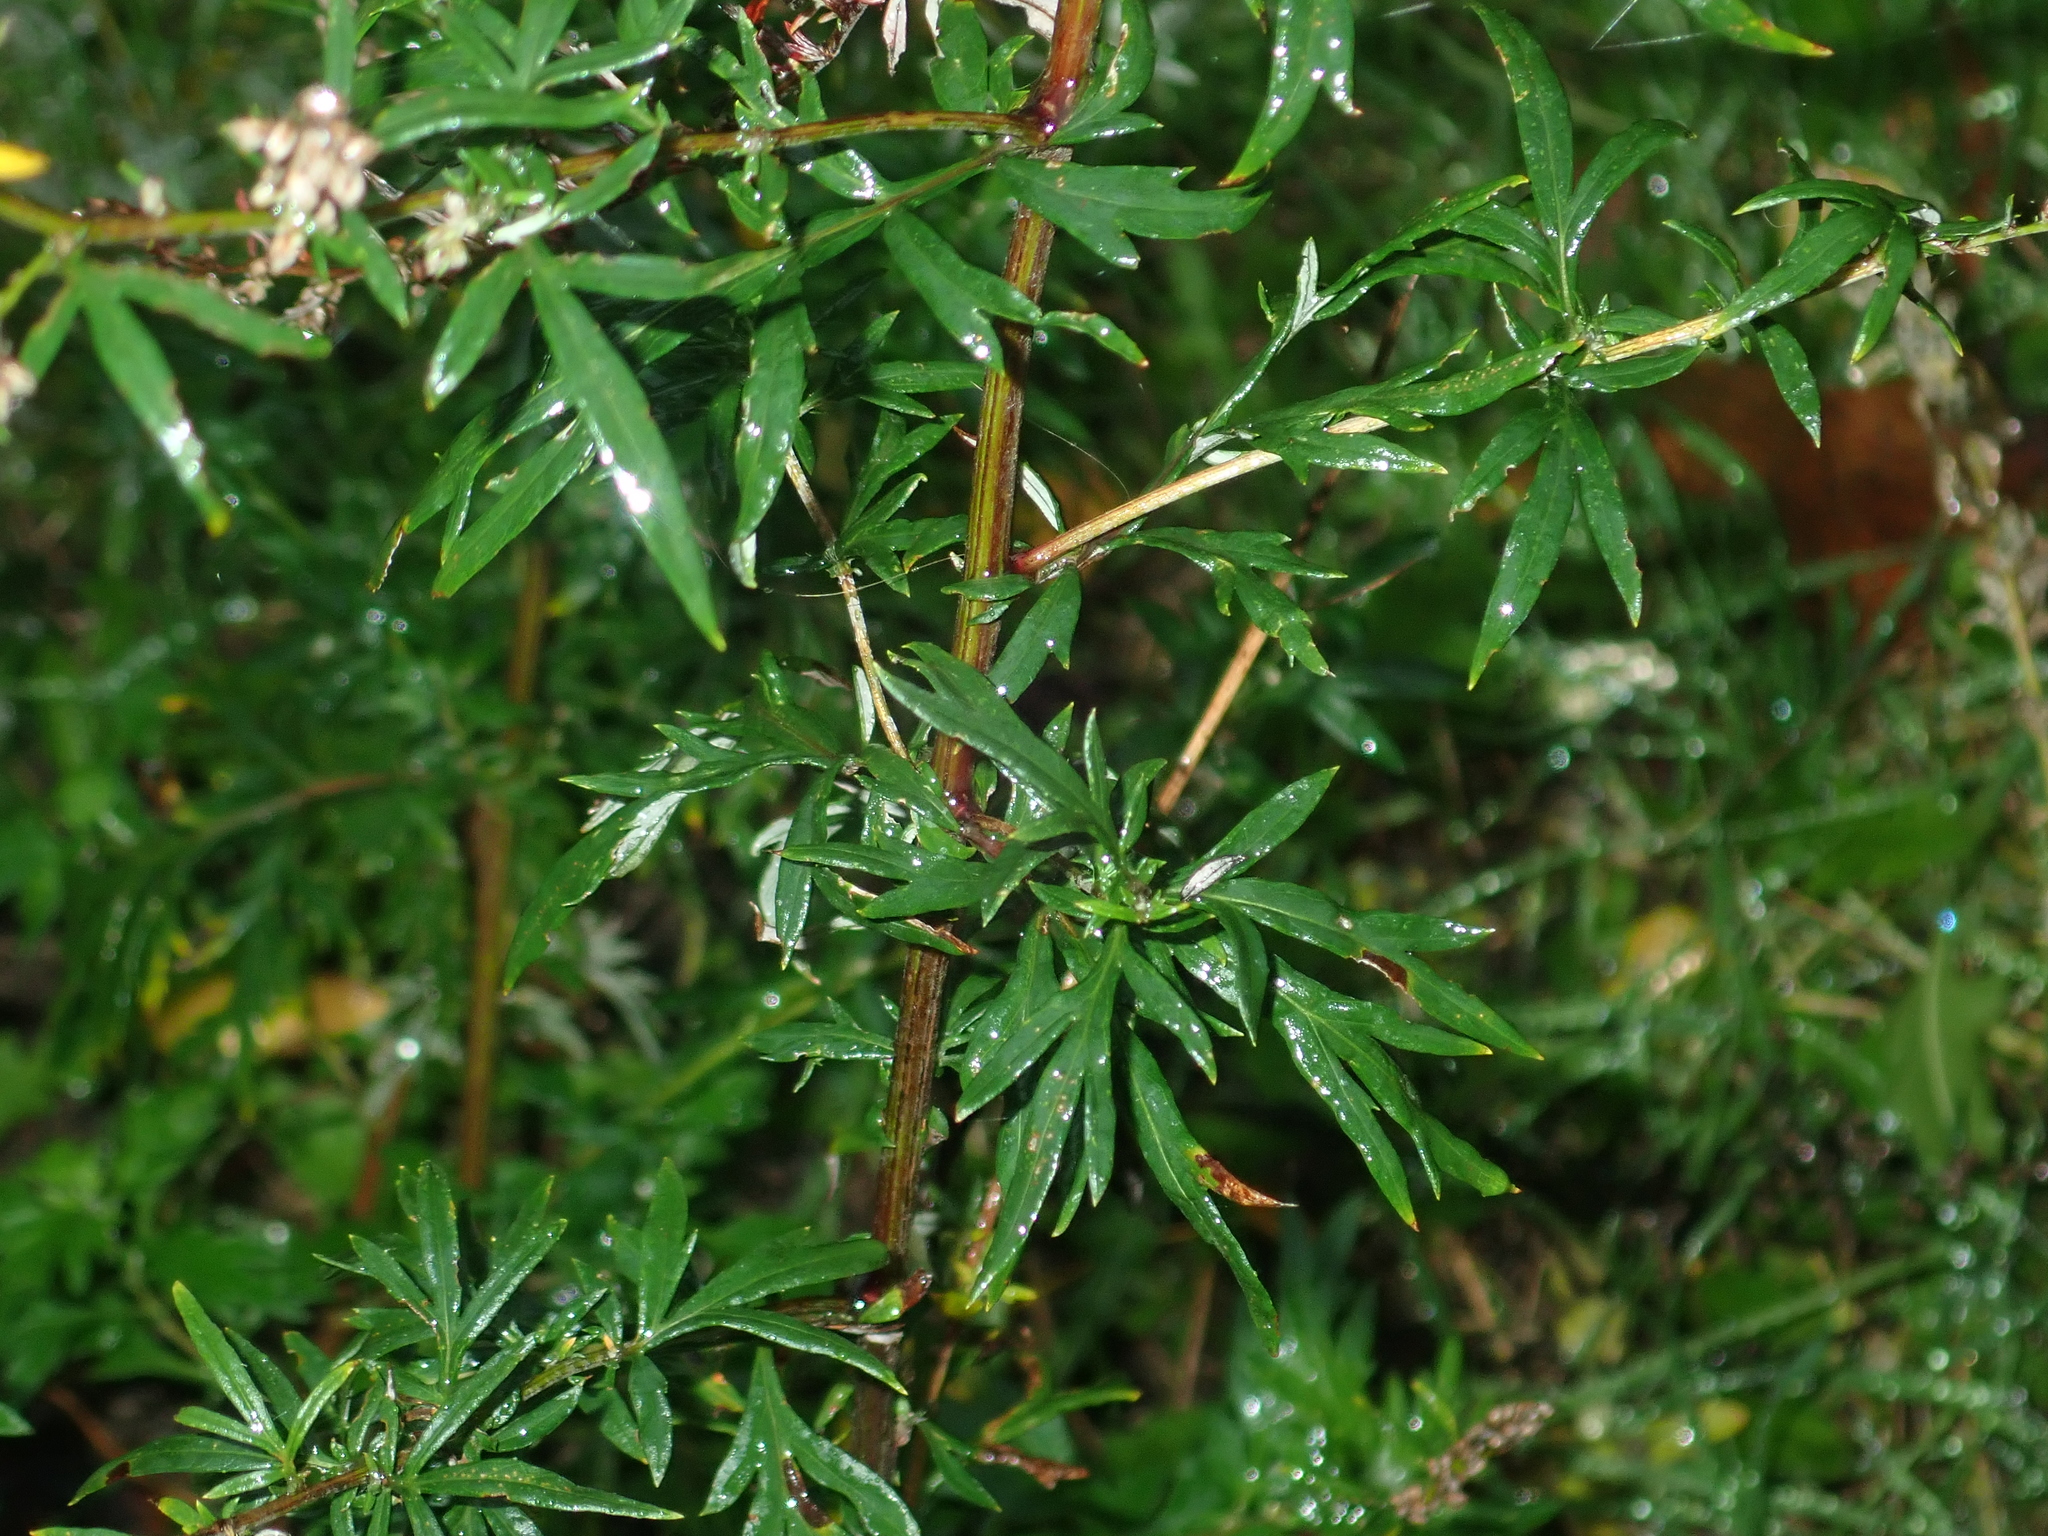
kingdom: Plantae
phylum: Tracheophyta
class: Magnoliopsida
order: Asterales
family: Asteraceae
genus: Artemisia
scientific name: Artemisia vulgaris
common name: Mugwort
